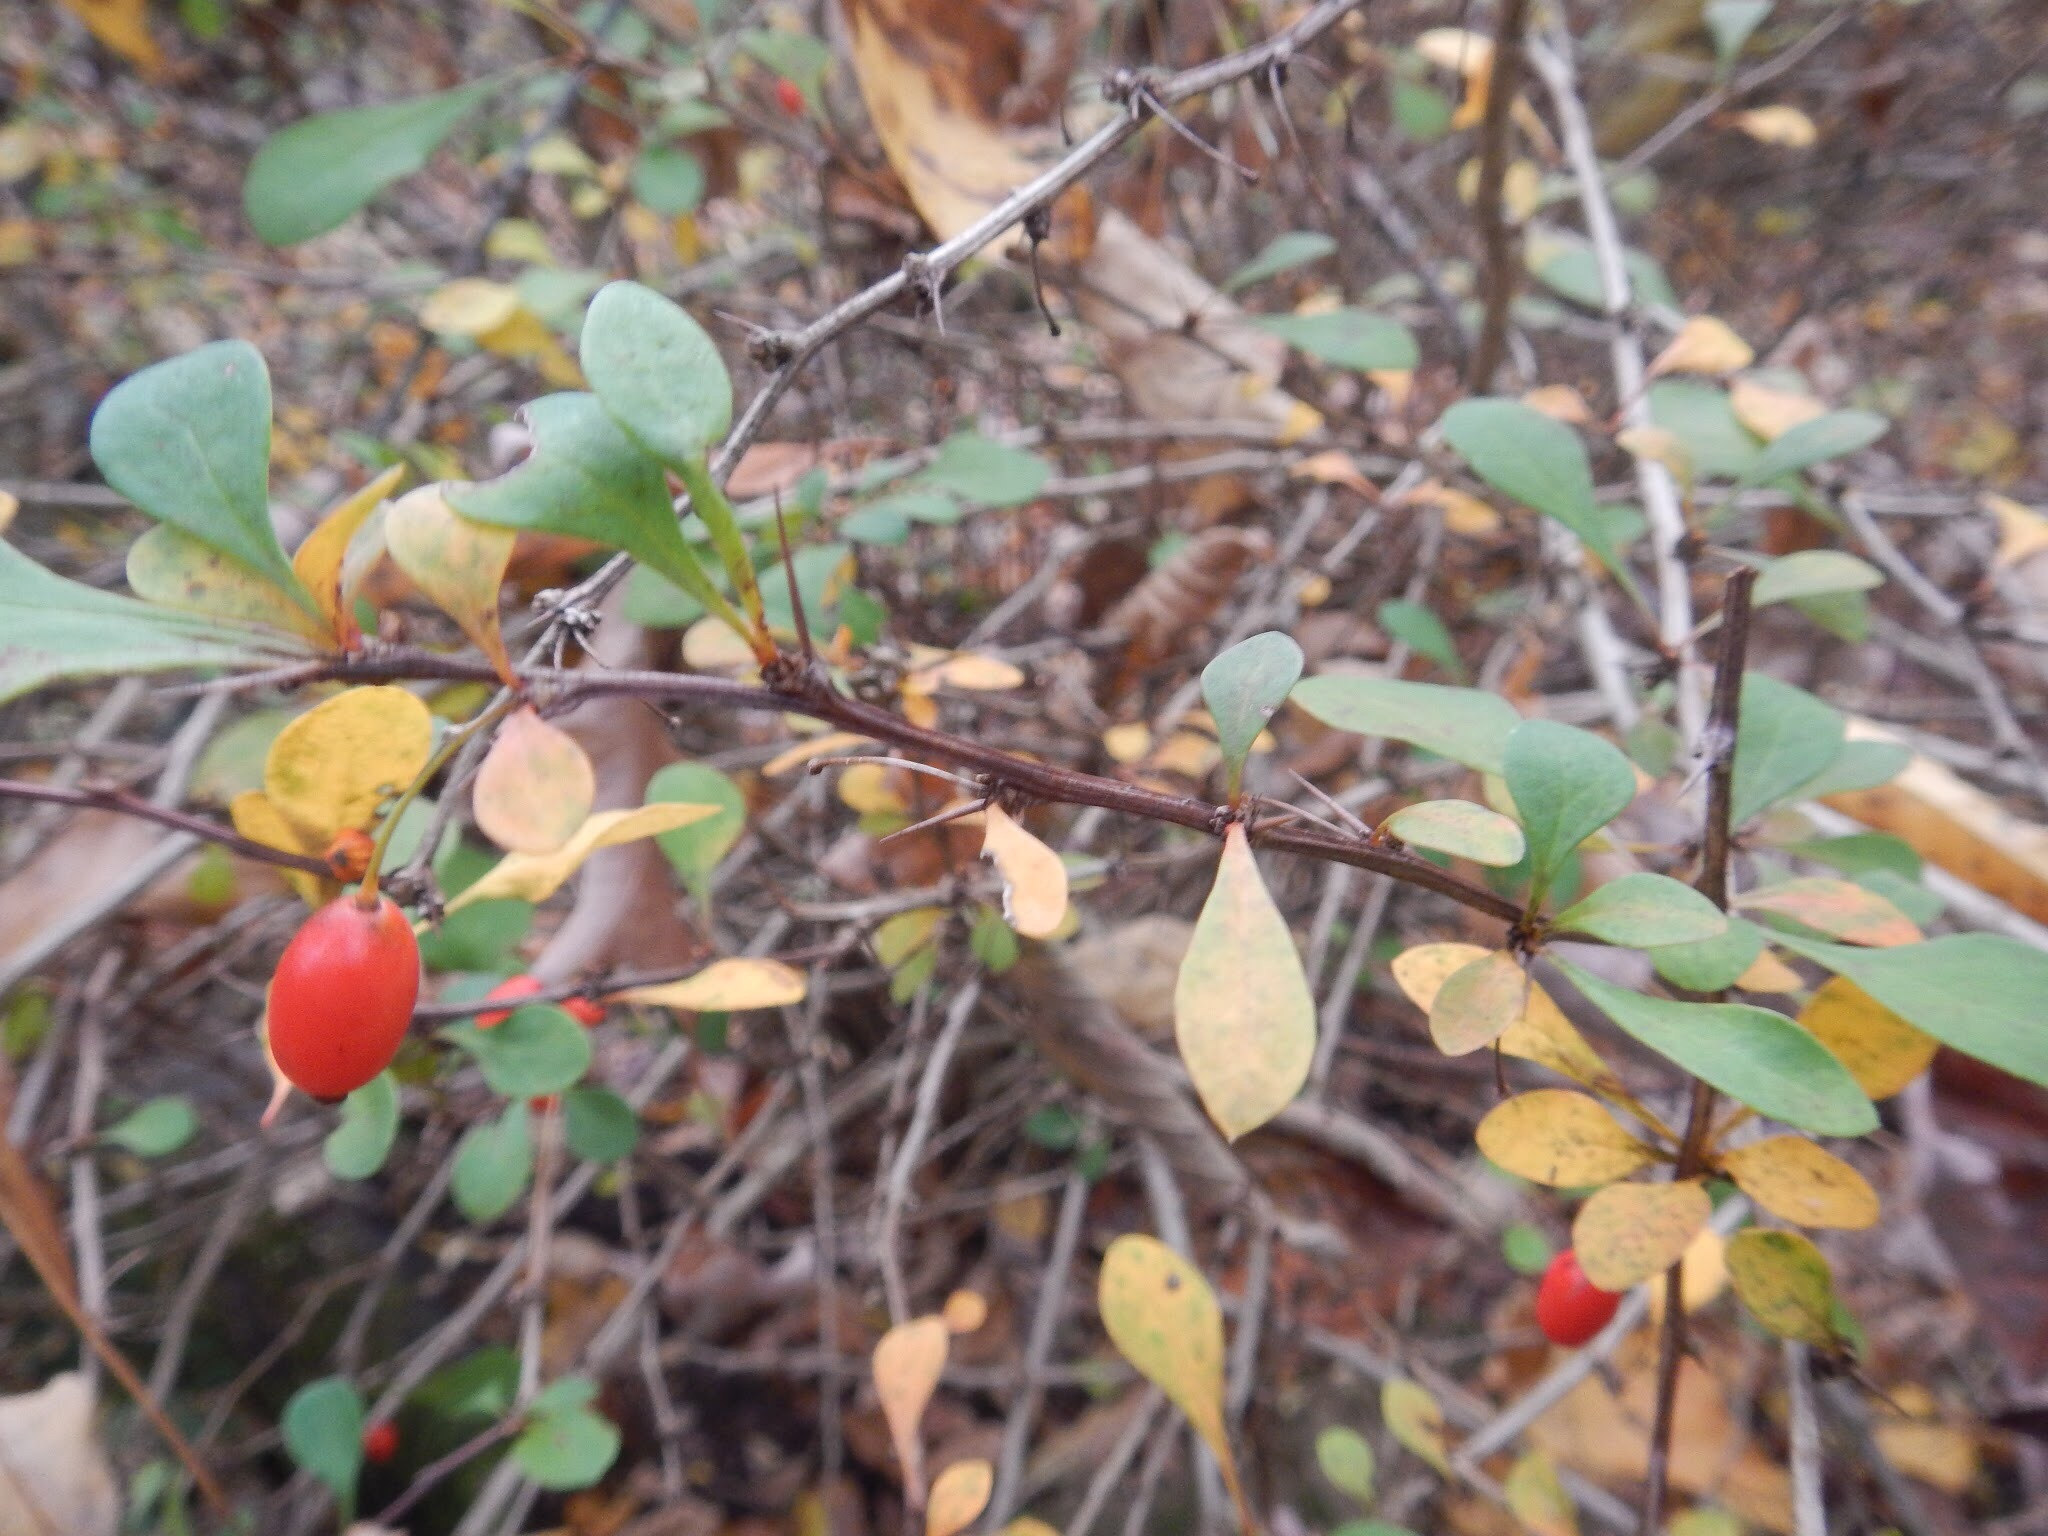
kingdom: Plantae
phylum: Tracheophyta
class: Magnoliopsida
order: Ranunculales
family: Berberidaceae
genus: Berberis
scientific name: Berberis thunbergii
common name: Japanese barberry
